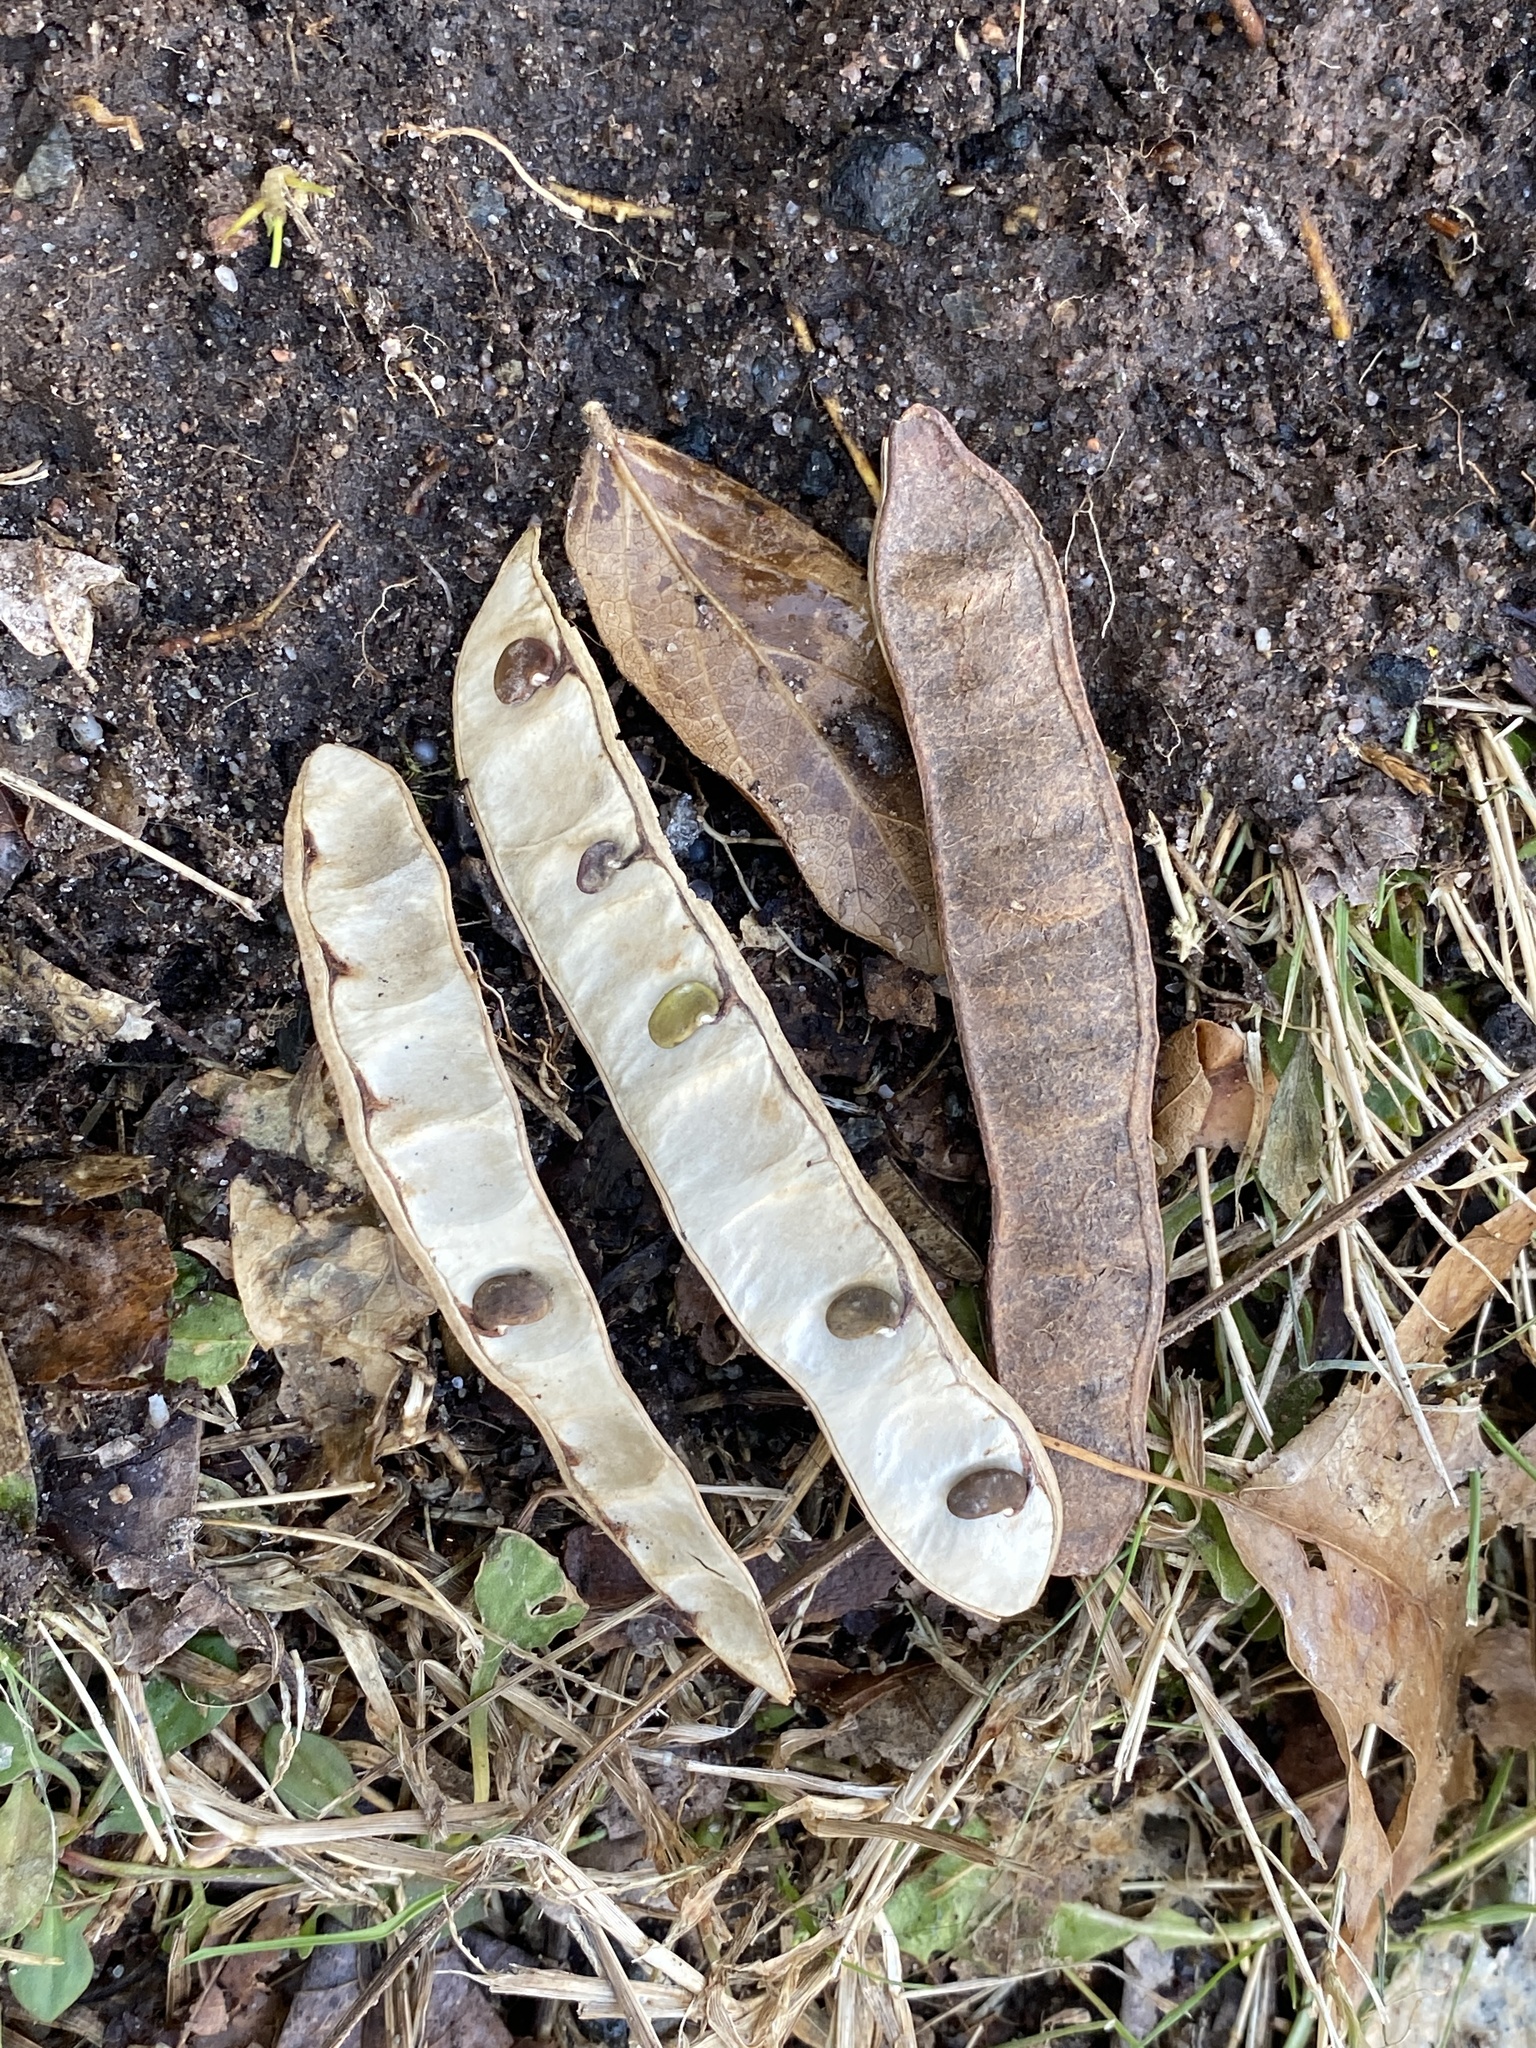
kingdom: Plantae
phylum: Tracheophyta
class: Magnoliopsida
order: Fabales
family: Fabaceae
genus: Robinia
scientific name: Robinia pseudoacacia
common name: Black locust
